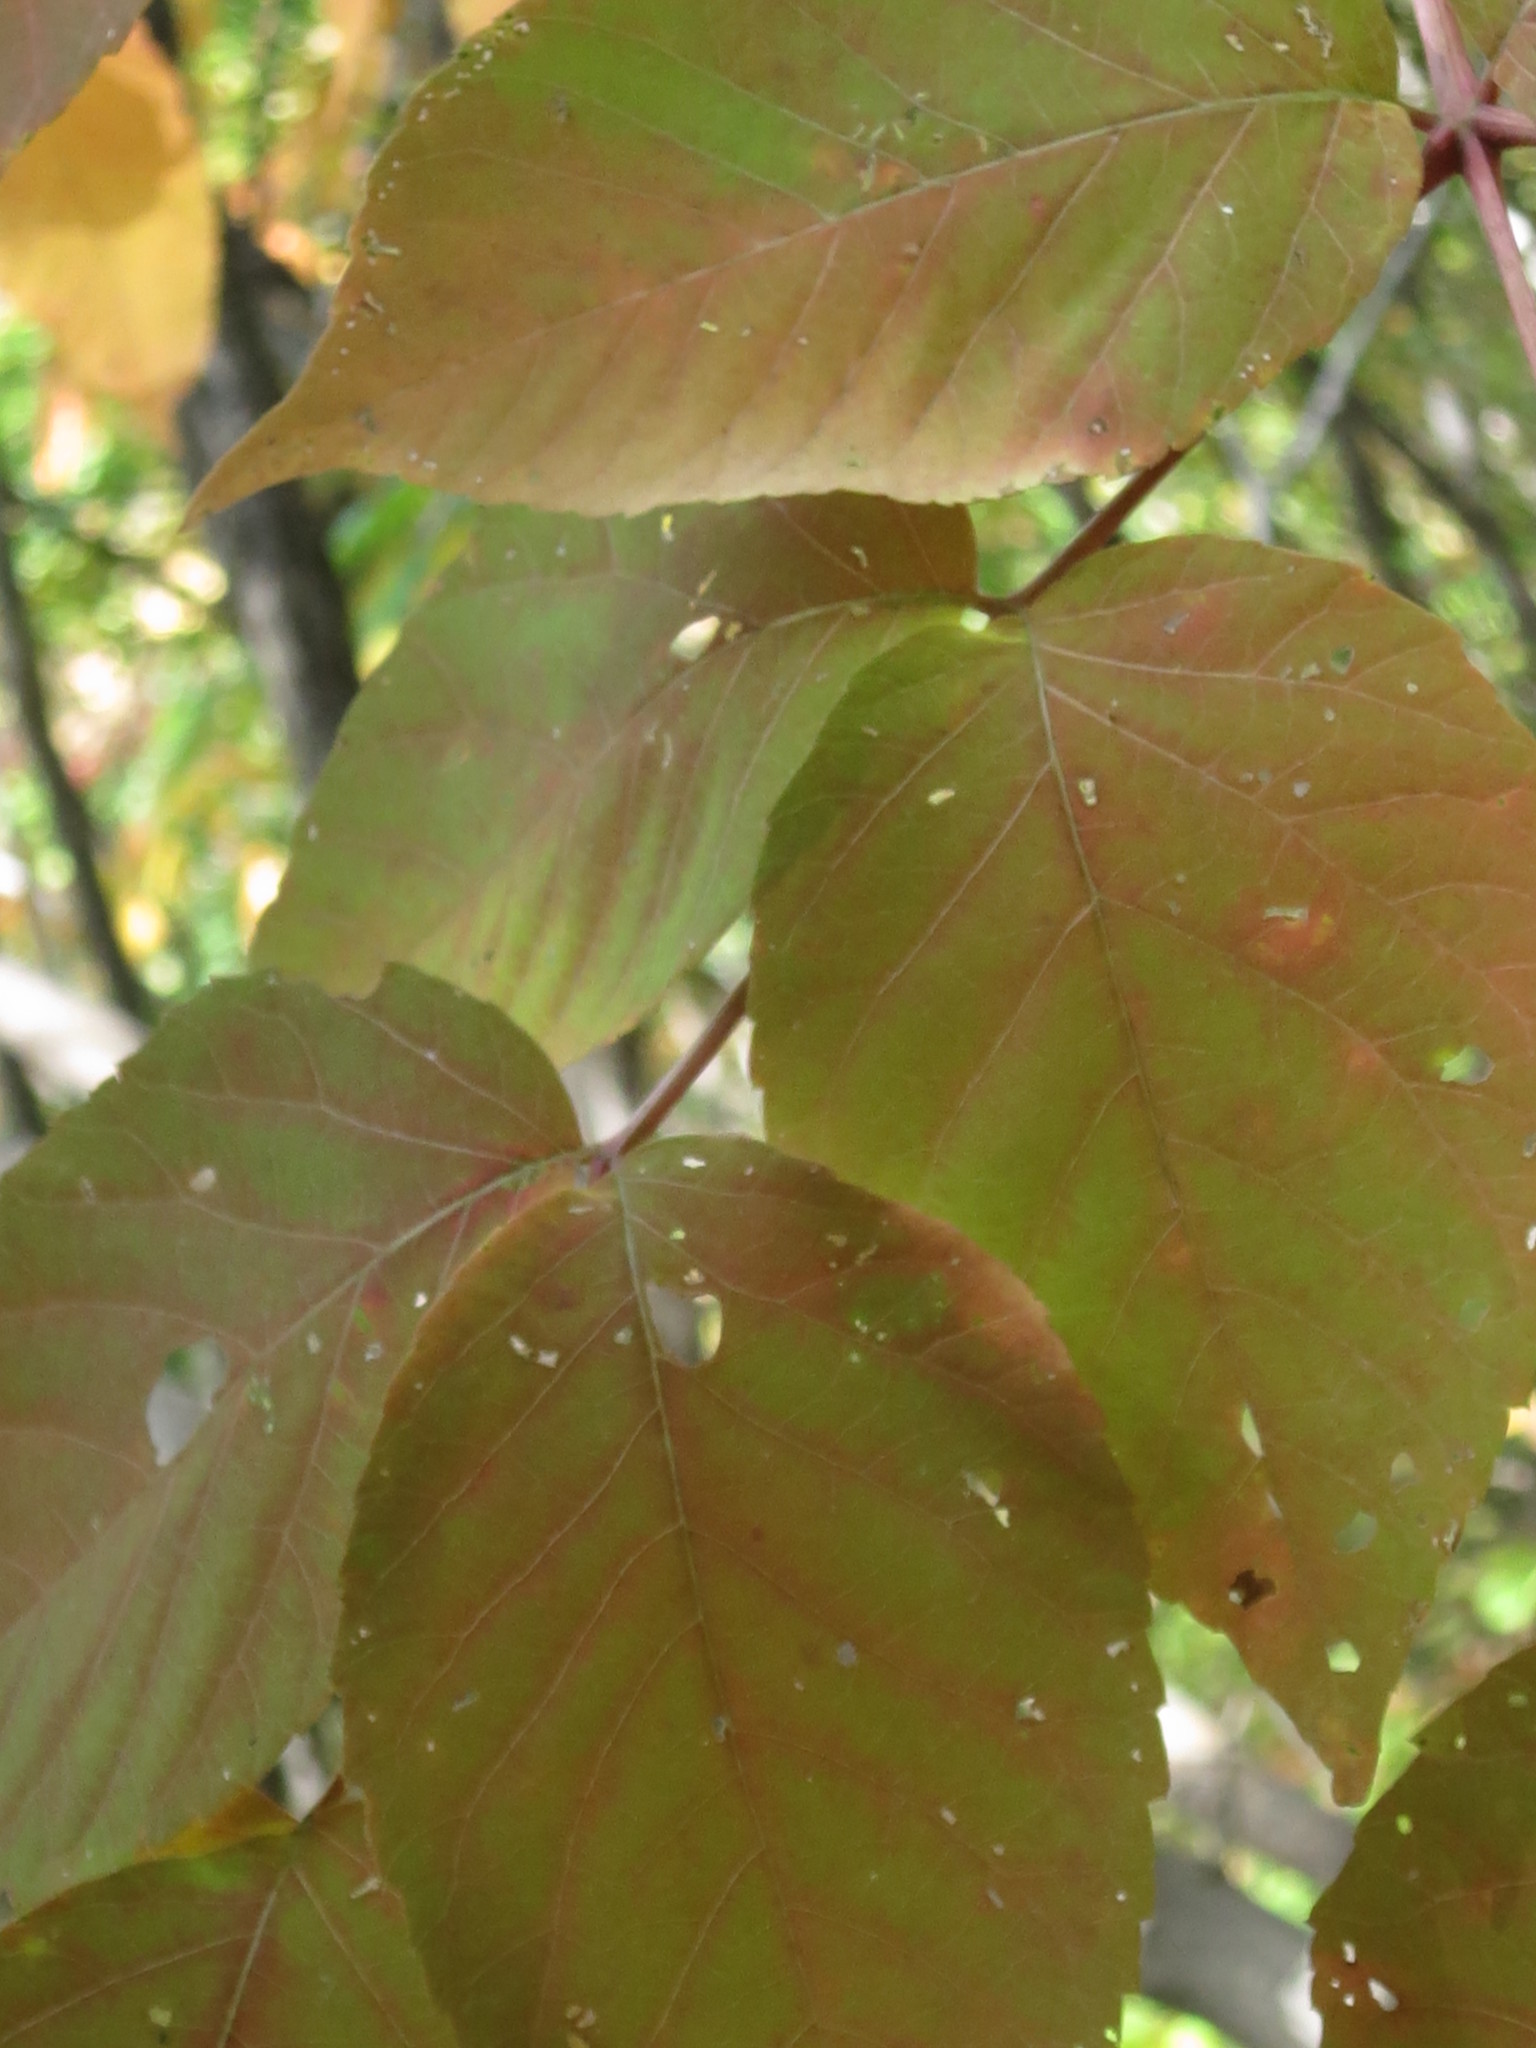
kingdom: Plantae
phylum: Tracheophyta
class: Magnoliopsida
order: Apiales
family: Araliaceae
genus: Aralia
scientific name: Aralia elata
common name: Japanese angelica-tree
